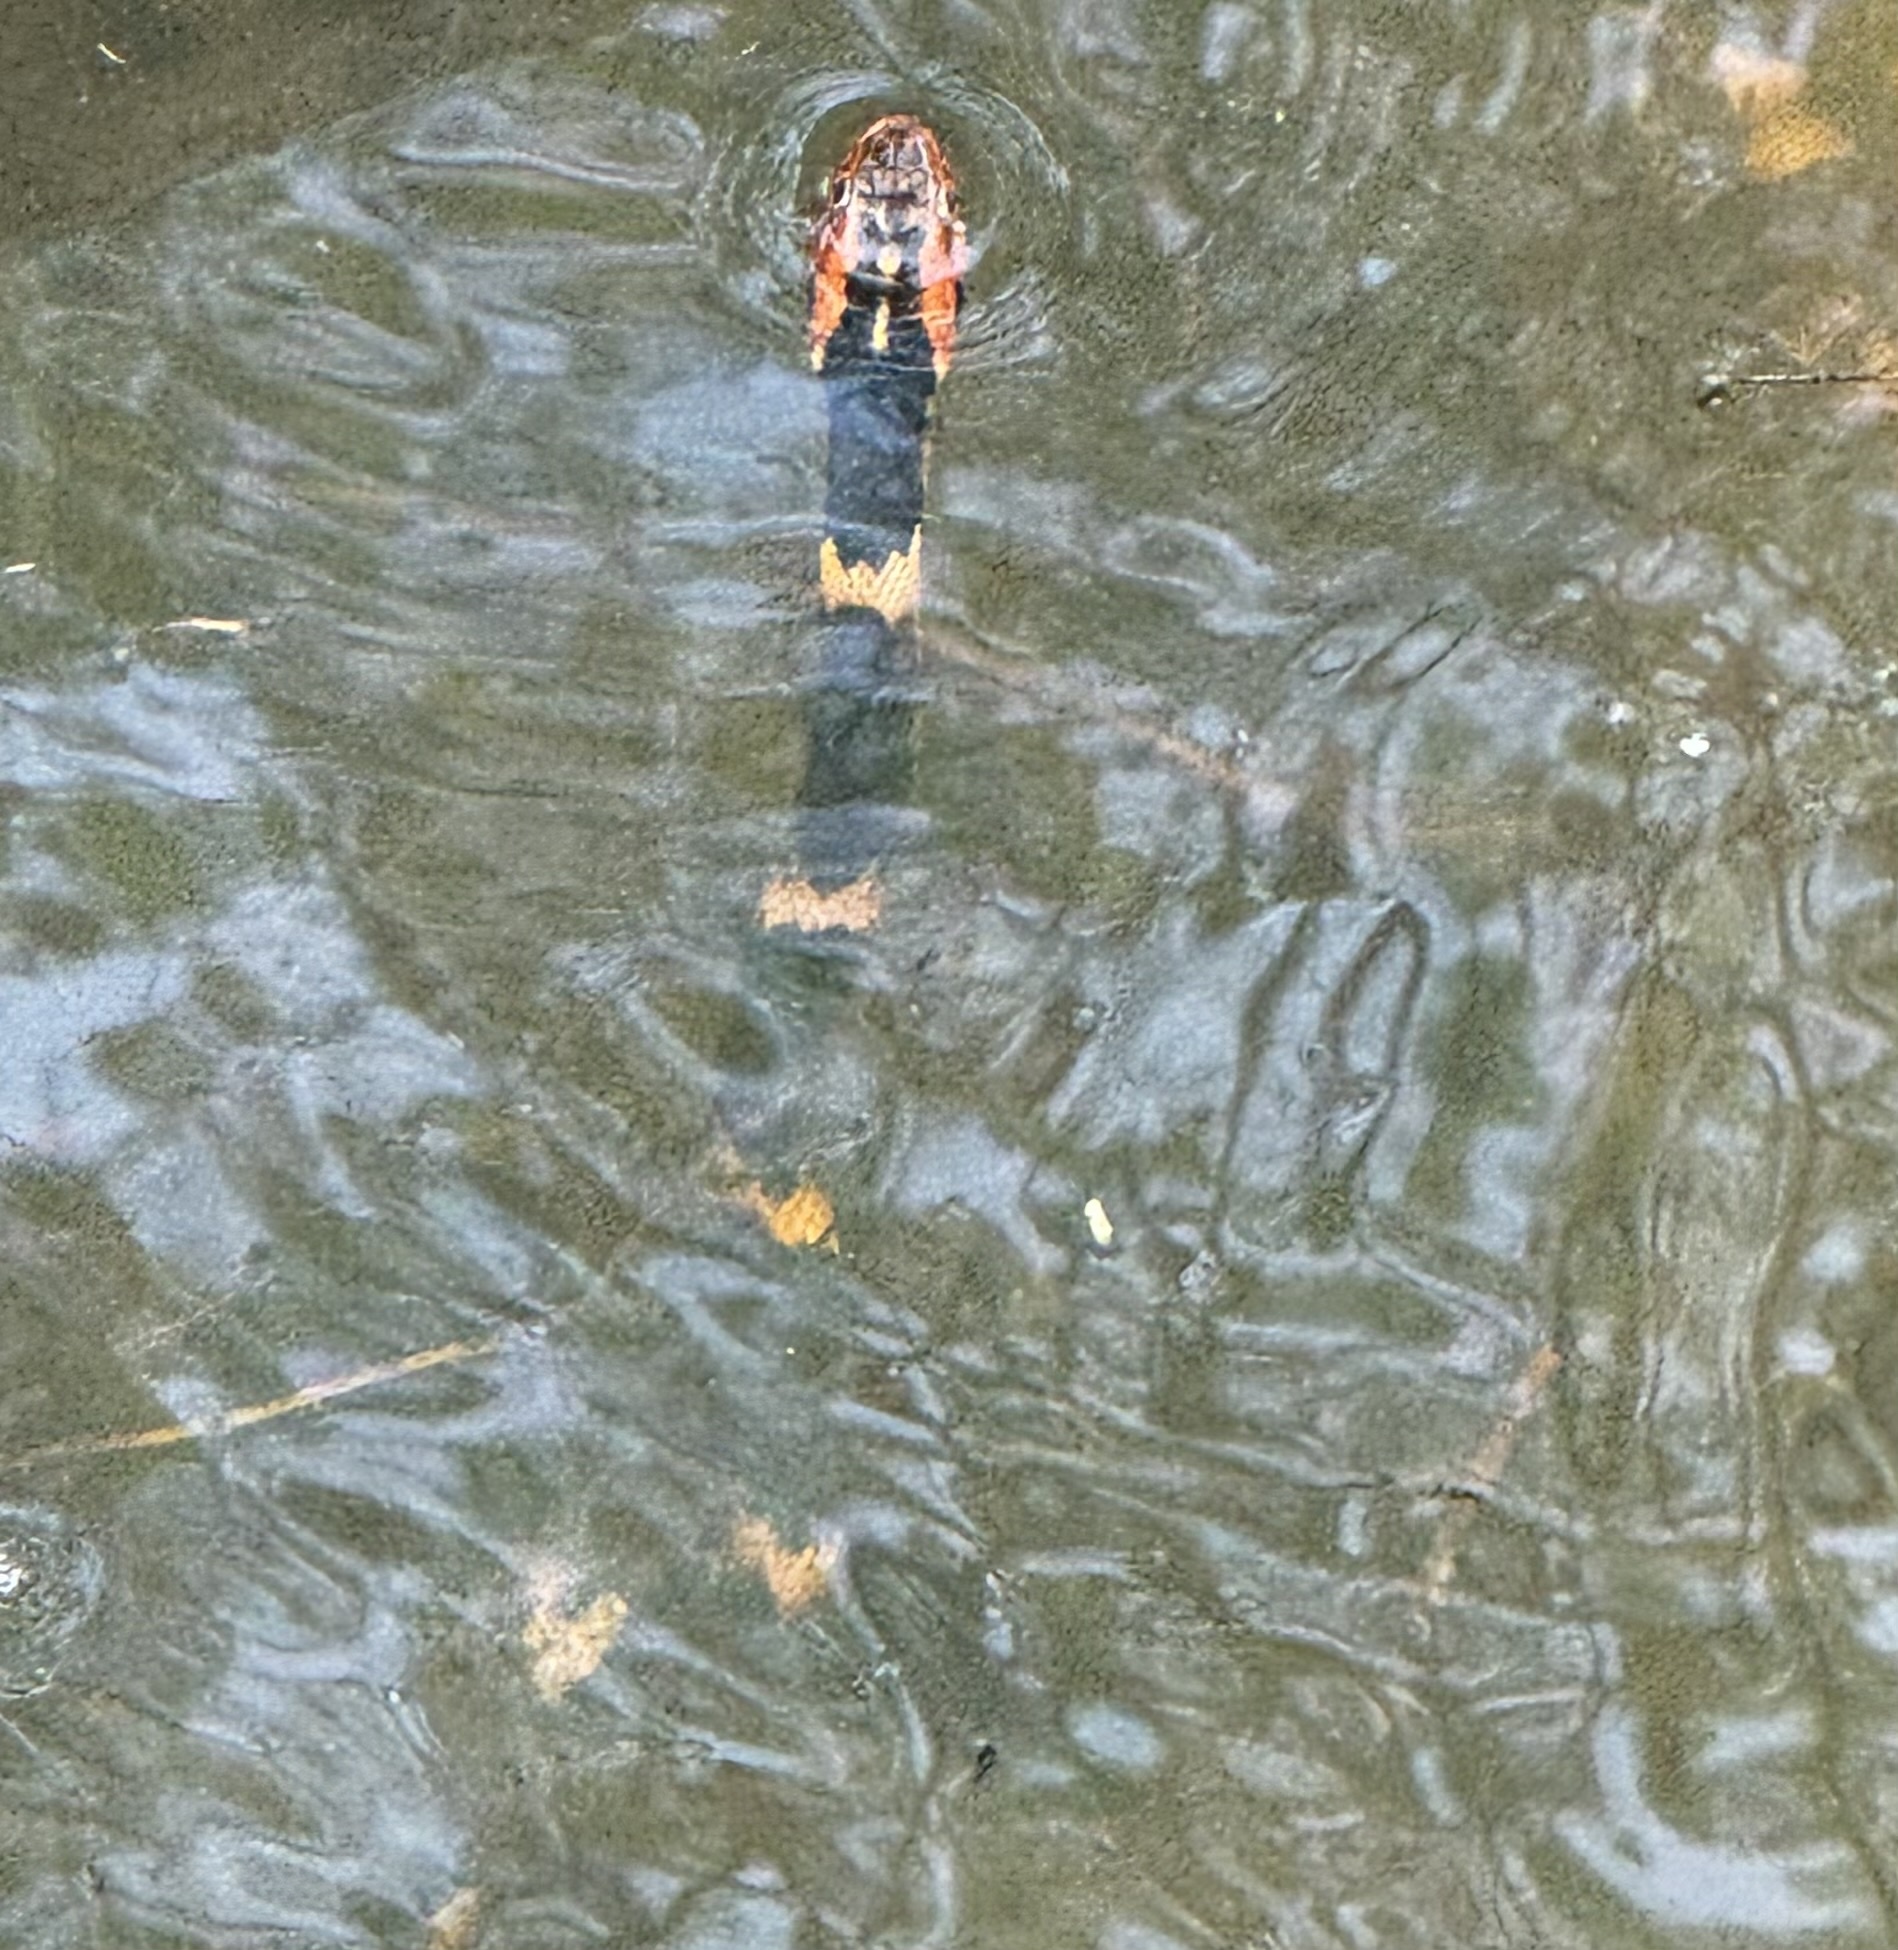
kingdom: Animalia
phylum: Chordata
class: Squamata
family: Colubridae
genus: Nerodia
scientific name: Nerodia fasciata
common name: Southern water snake
